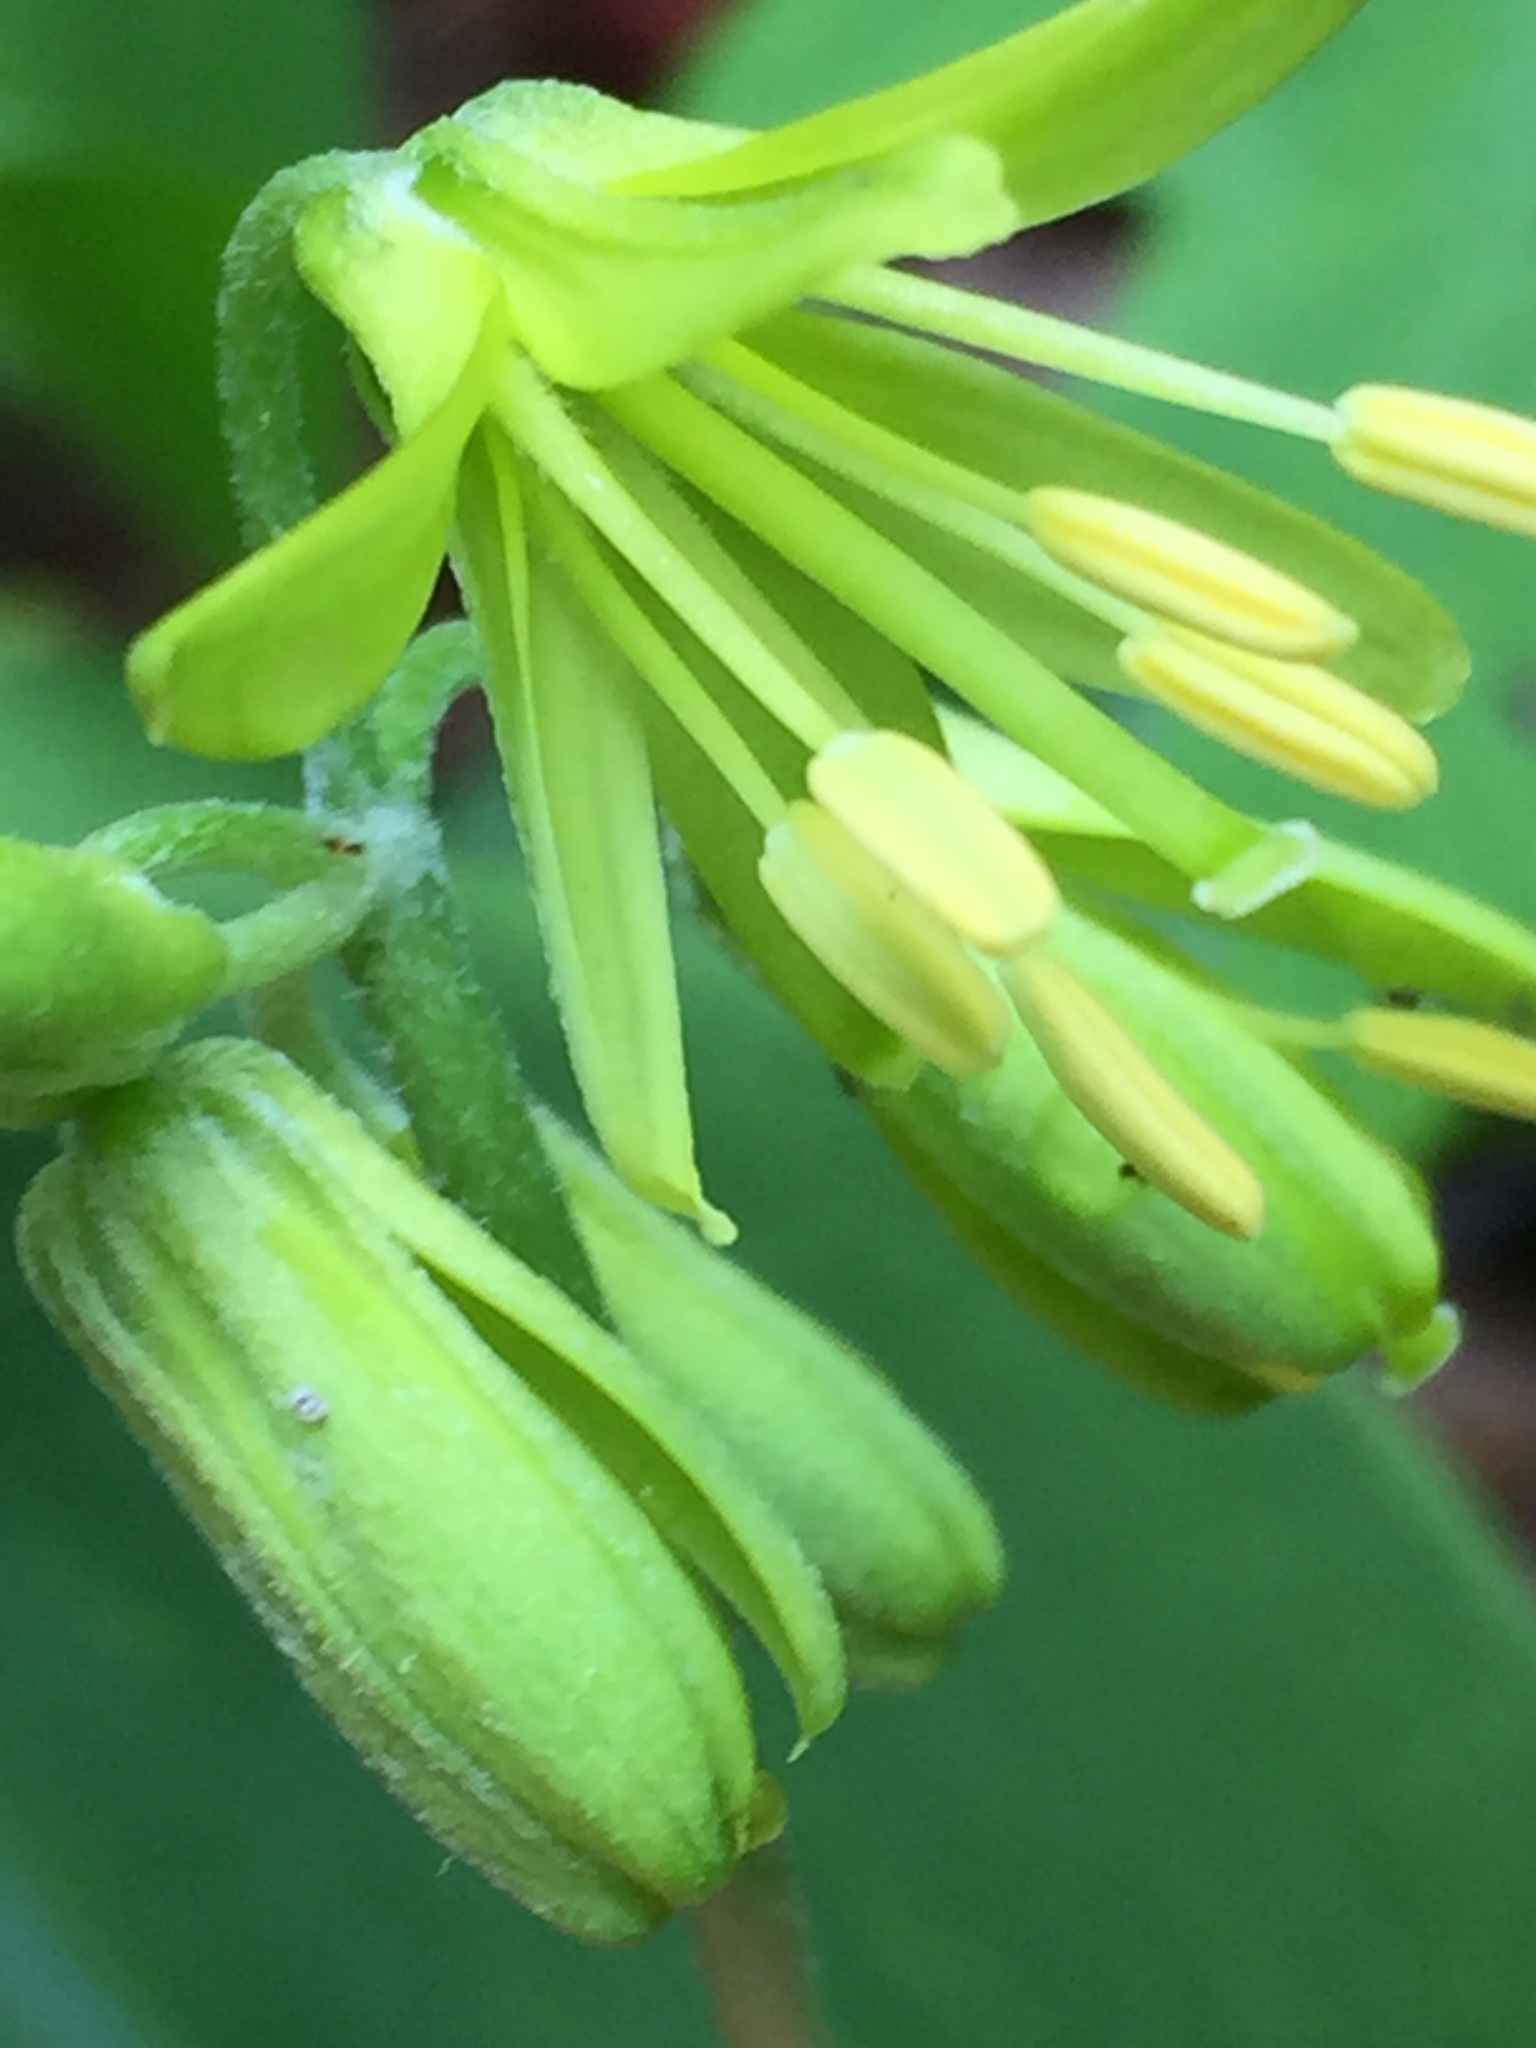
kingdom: Plantae
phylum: Tracheophyta
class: Liliopsida
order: Liliales
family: Liliaceae
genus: Clintonia
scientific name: Clintonia borealis
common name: Yellow clintonia
